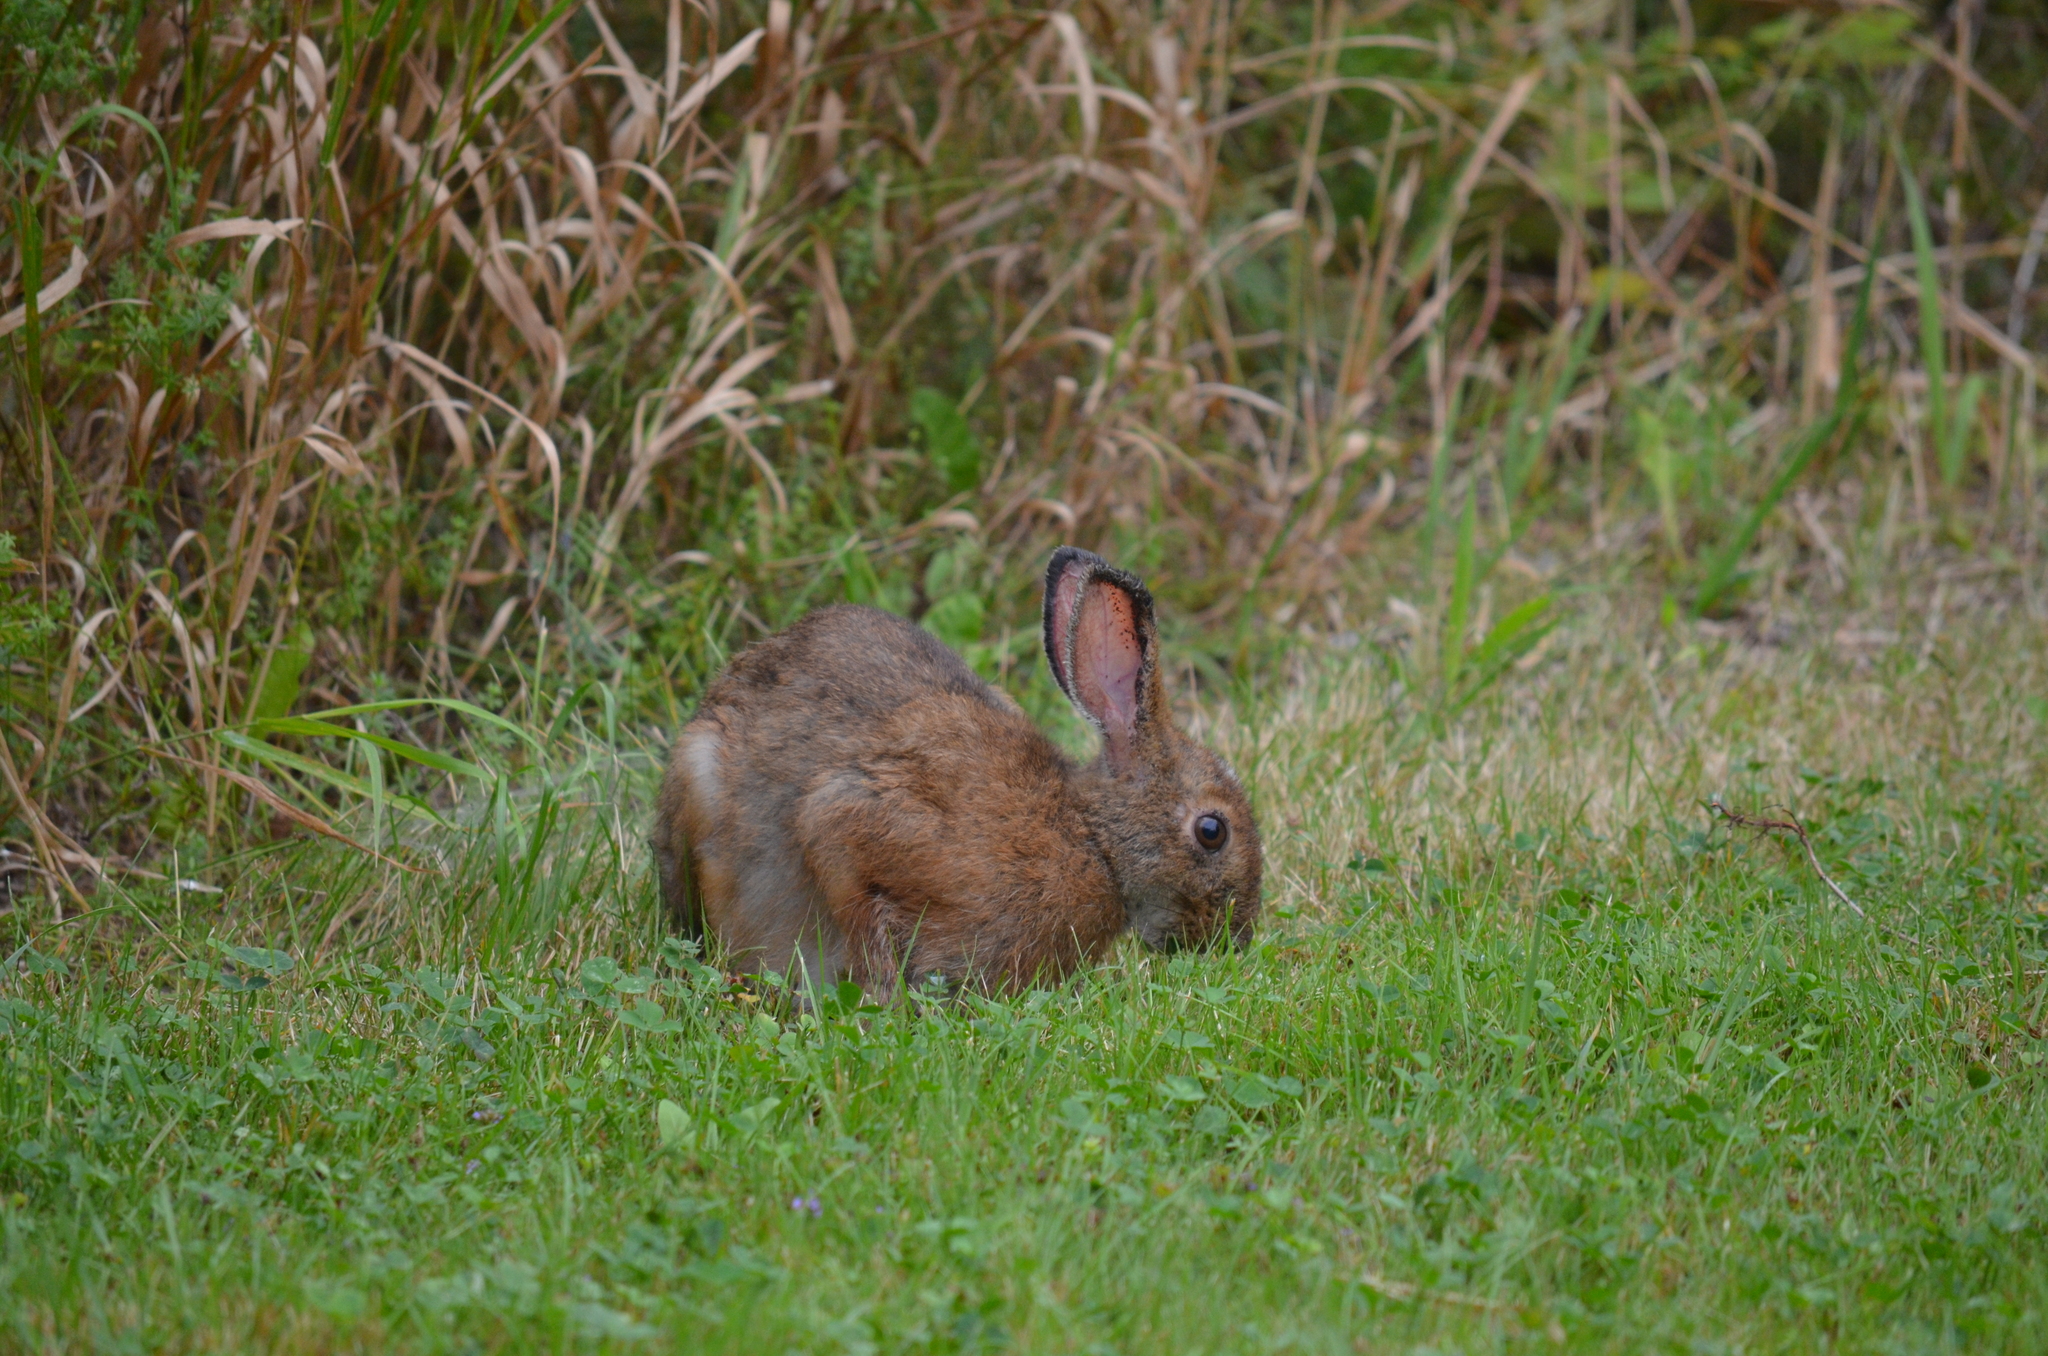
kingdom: Animalia
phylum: Chordata
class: Mammalia
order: Lagomorpha
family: Leporidae
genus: Lepus
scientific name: Lepus americanus
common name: Snowshoe hare
